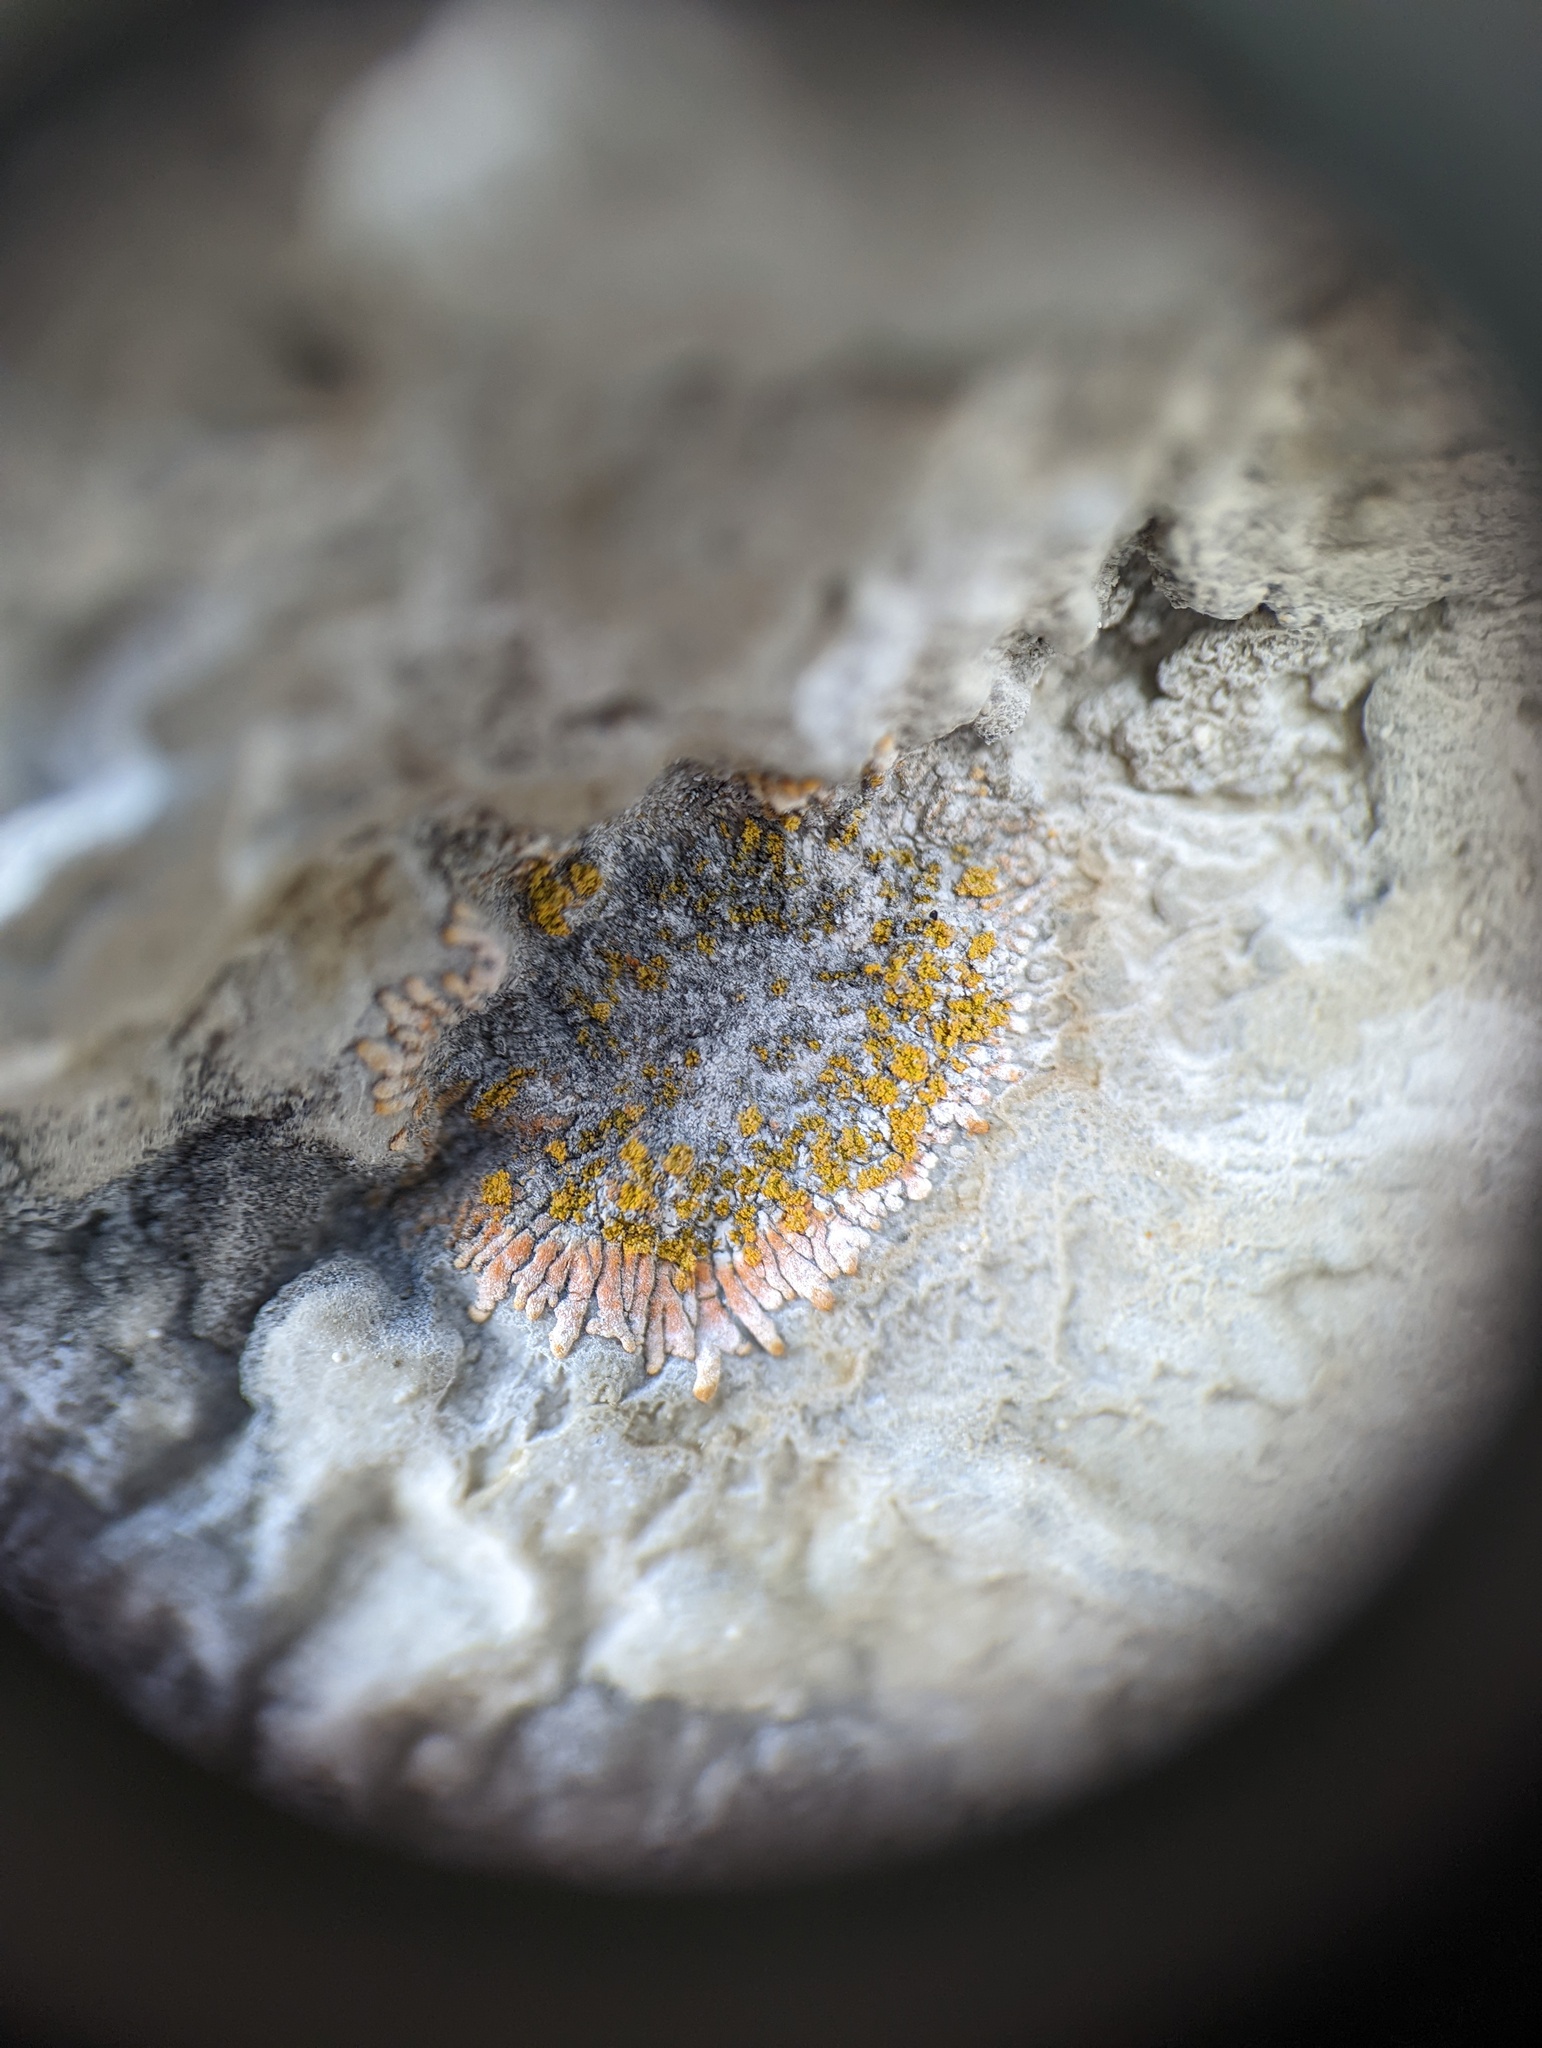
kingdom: Fungi
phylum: Ascomycota
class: Lecanoromycetes
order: Teloschistales
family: Teloschistaceae
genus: Leproplaca
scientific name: Leproplaca cirrochroa
